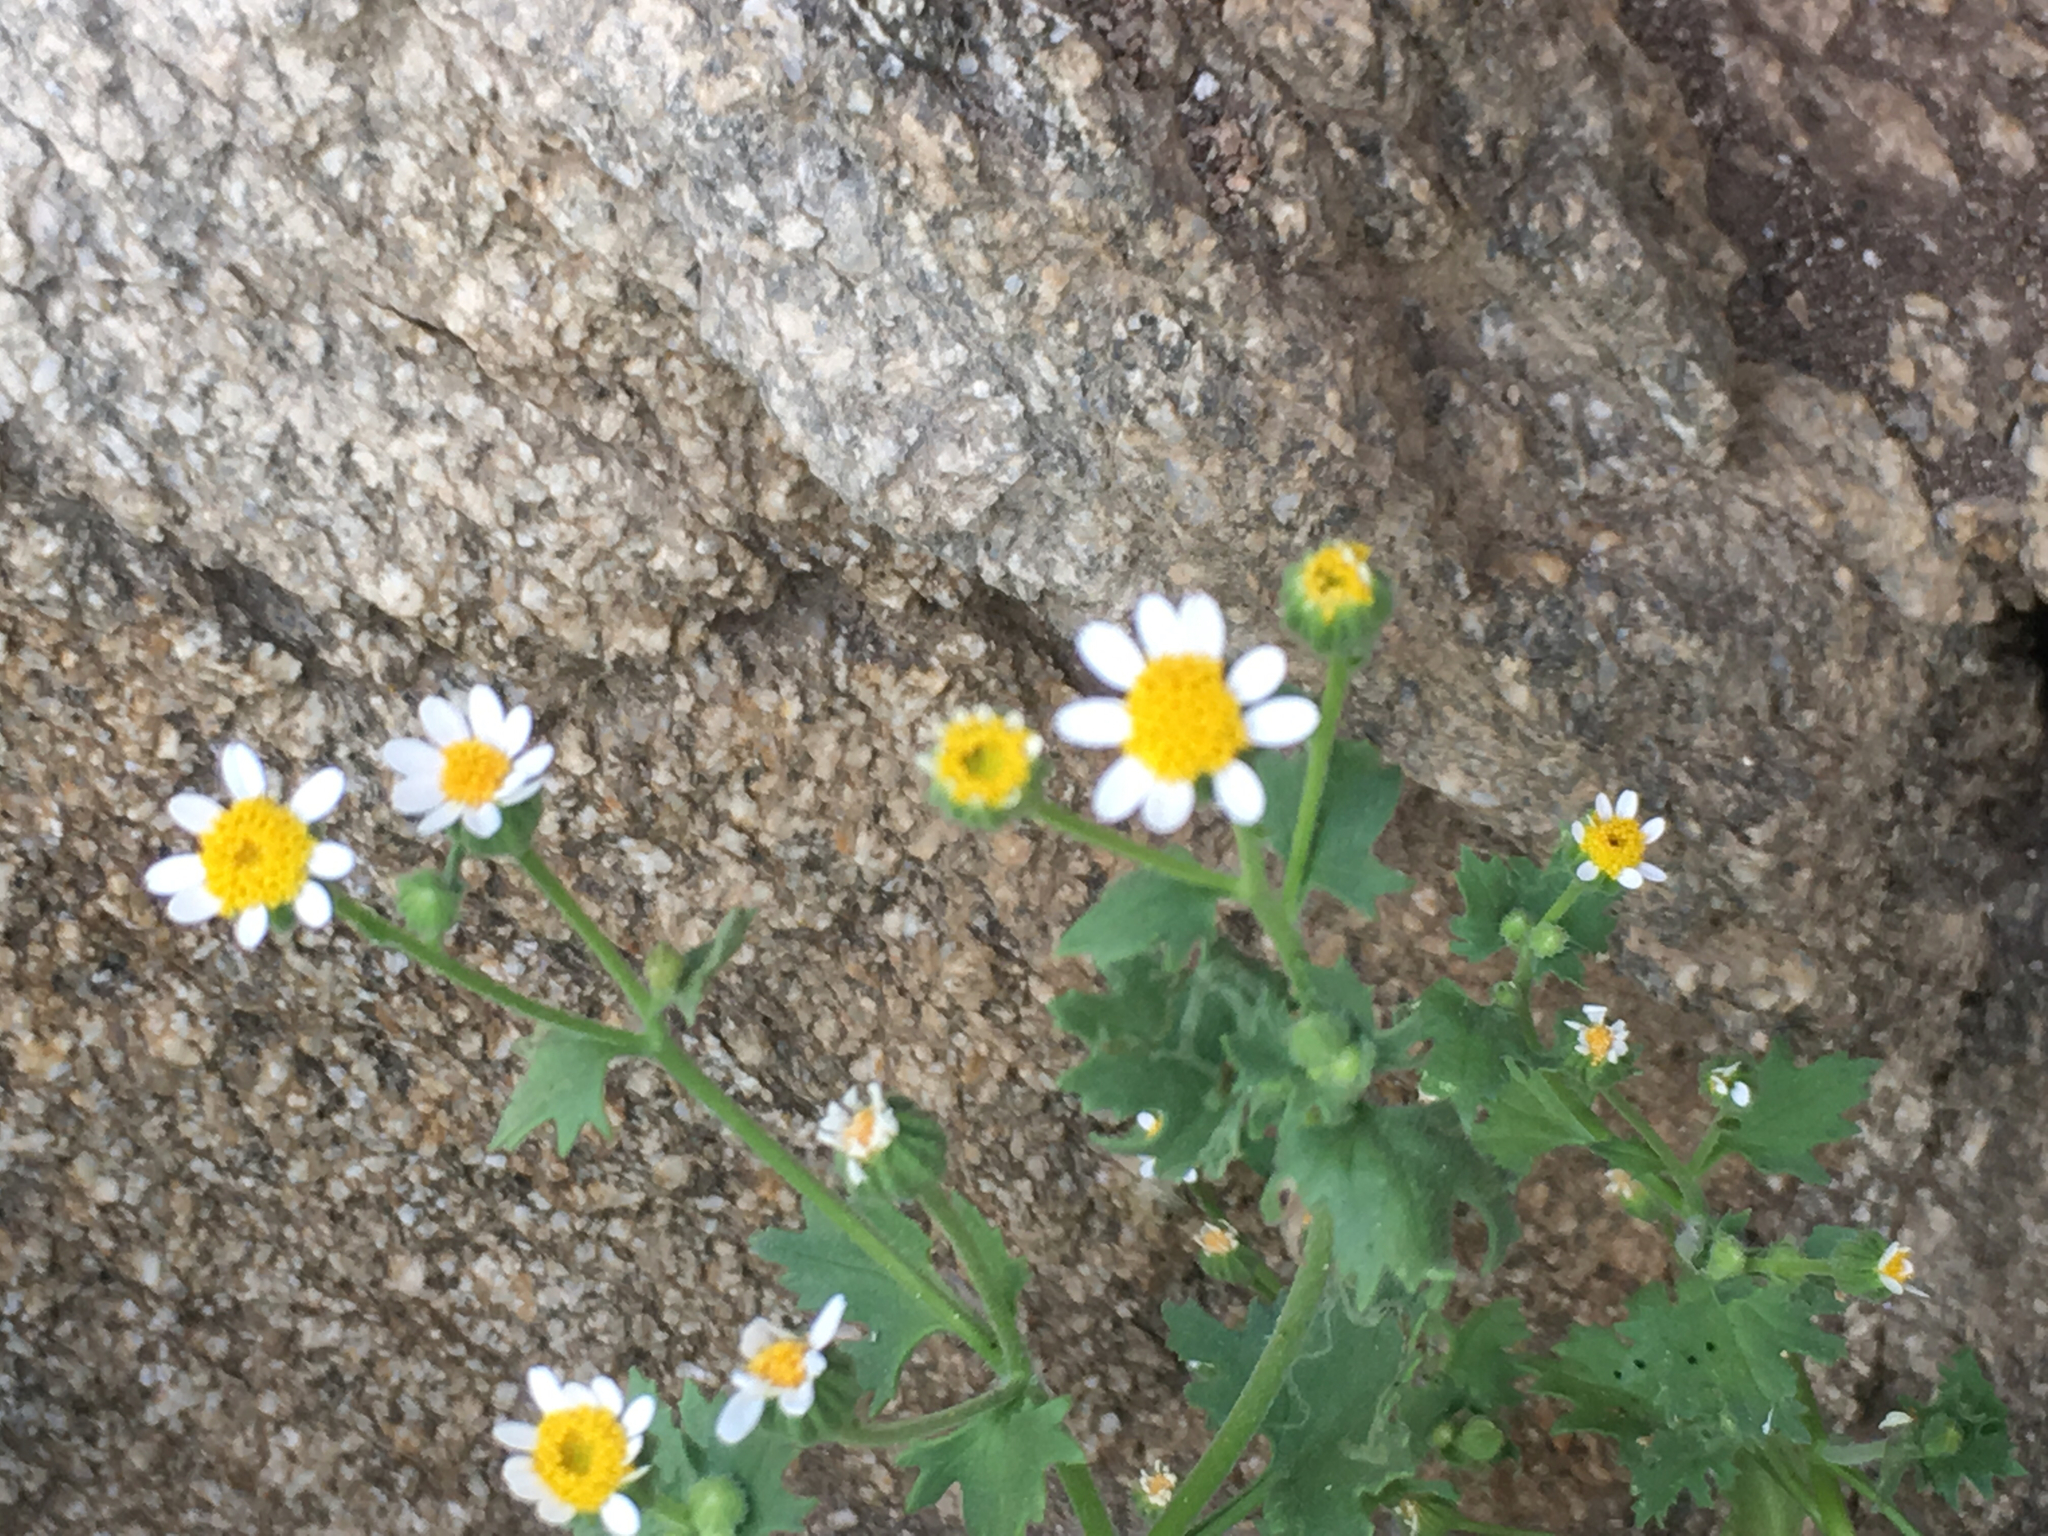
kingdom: Plantae
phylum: Tracheophyta
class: Magnoliopsida
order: Asterales
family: Asteraceae
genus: Laphamia
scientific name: Laphamia emoryi
